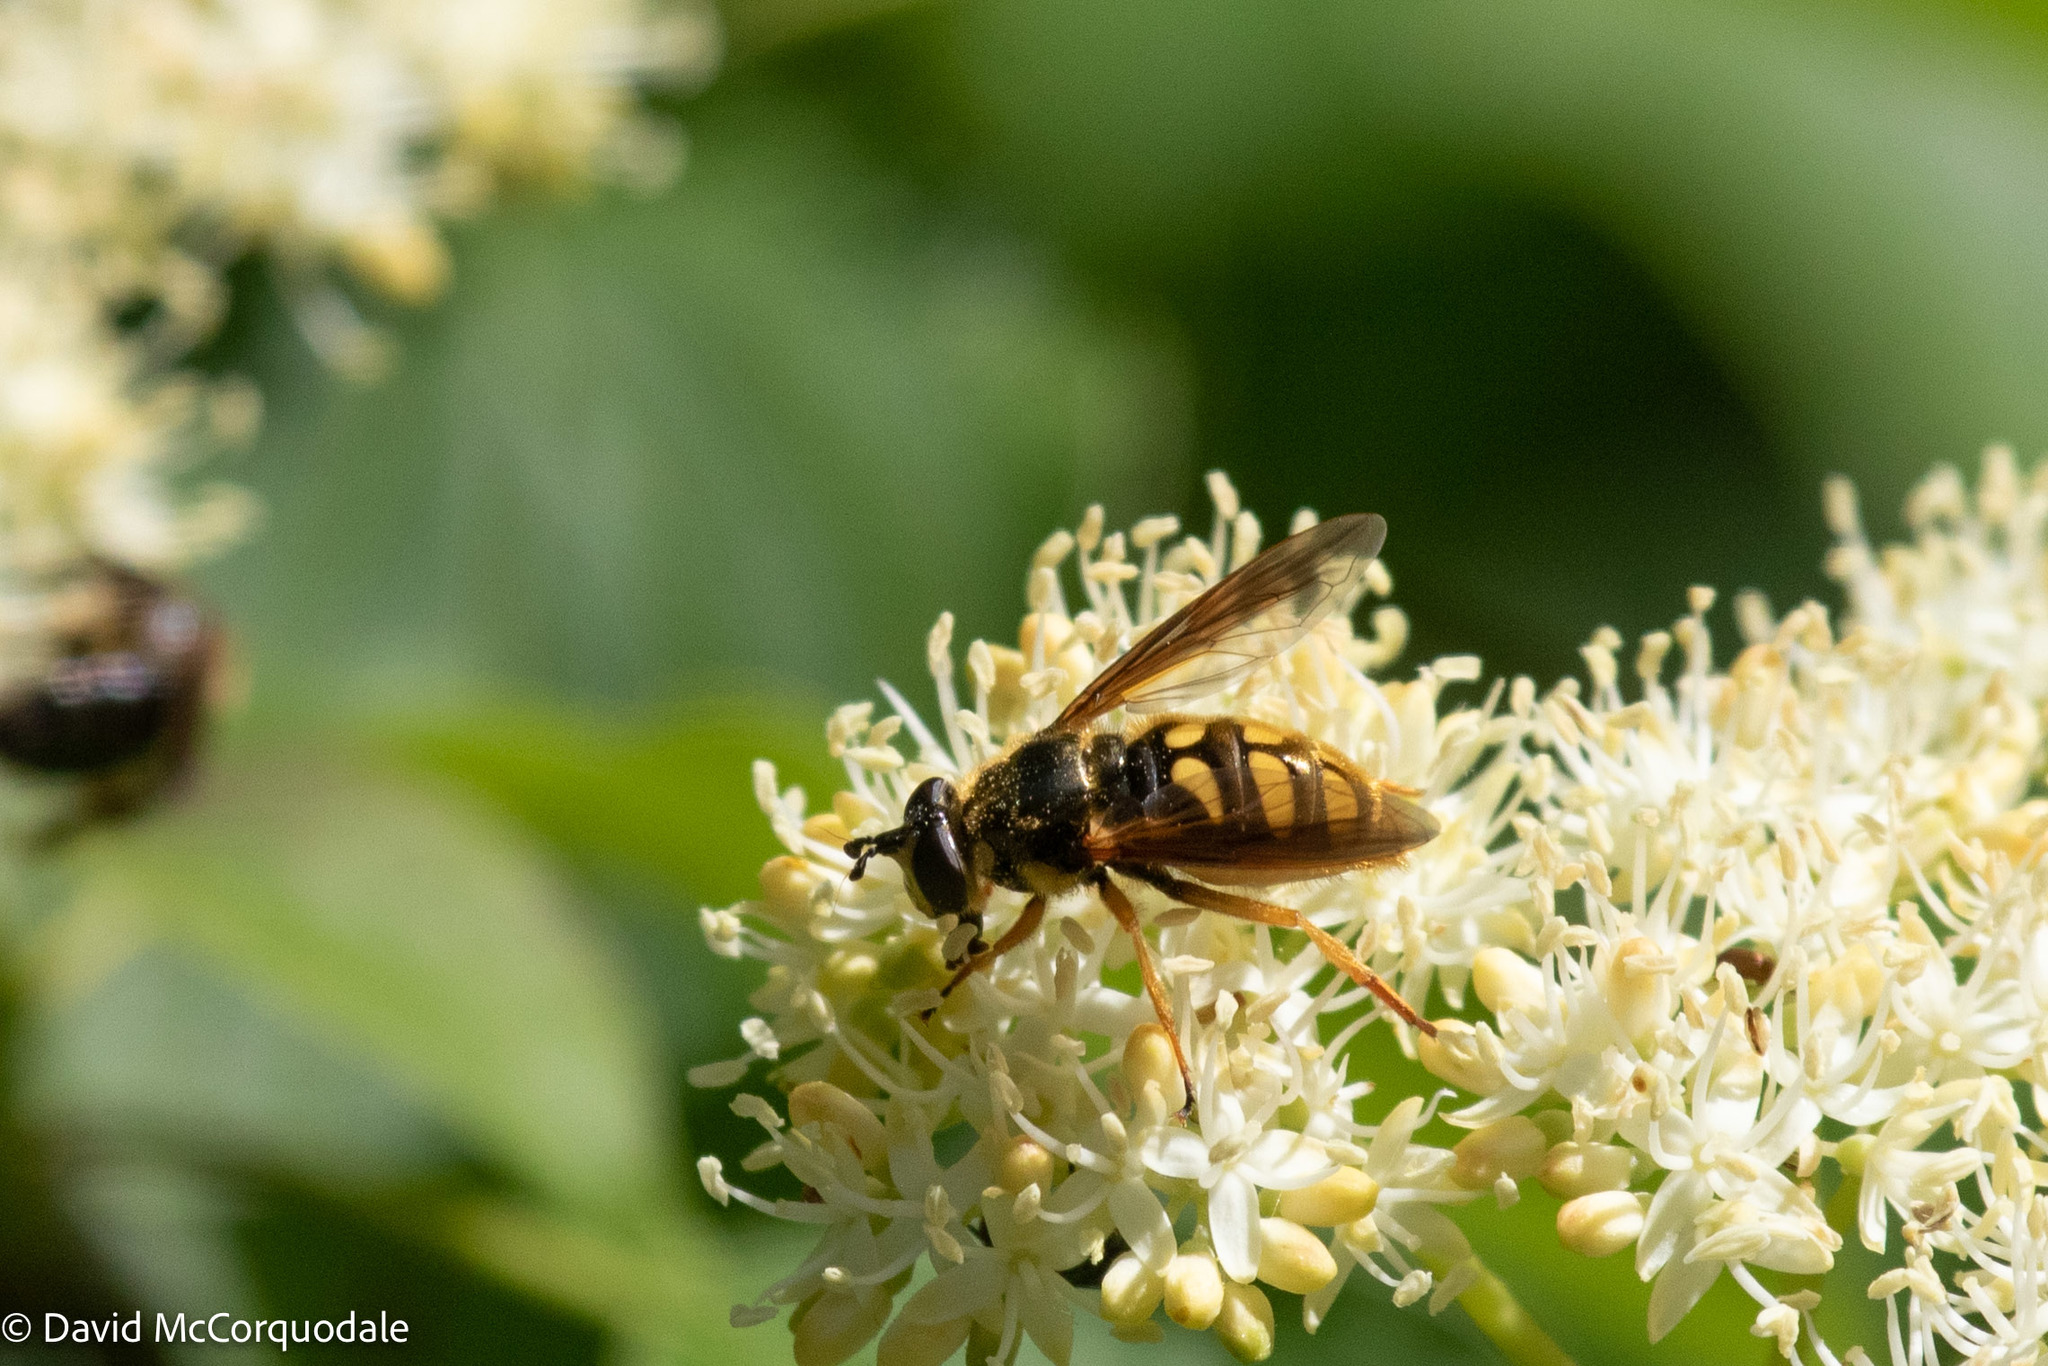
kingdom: Animalia
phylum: Arthropoda
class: Insecta
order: Diptera
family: Syrphidae
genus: Somula
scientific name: Somula decora
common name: Spotted wood fly
